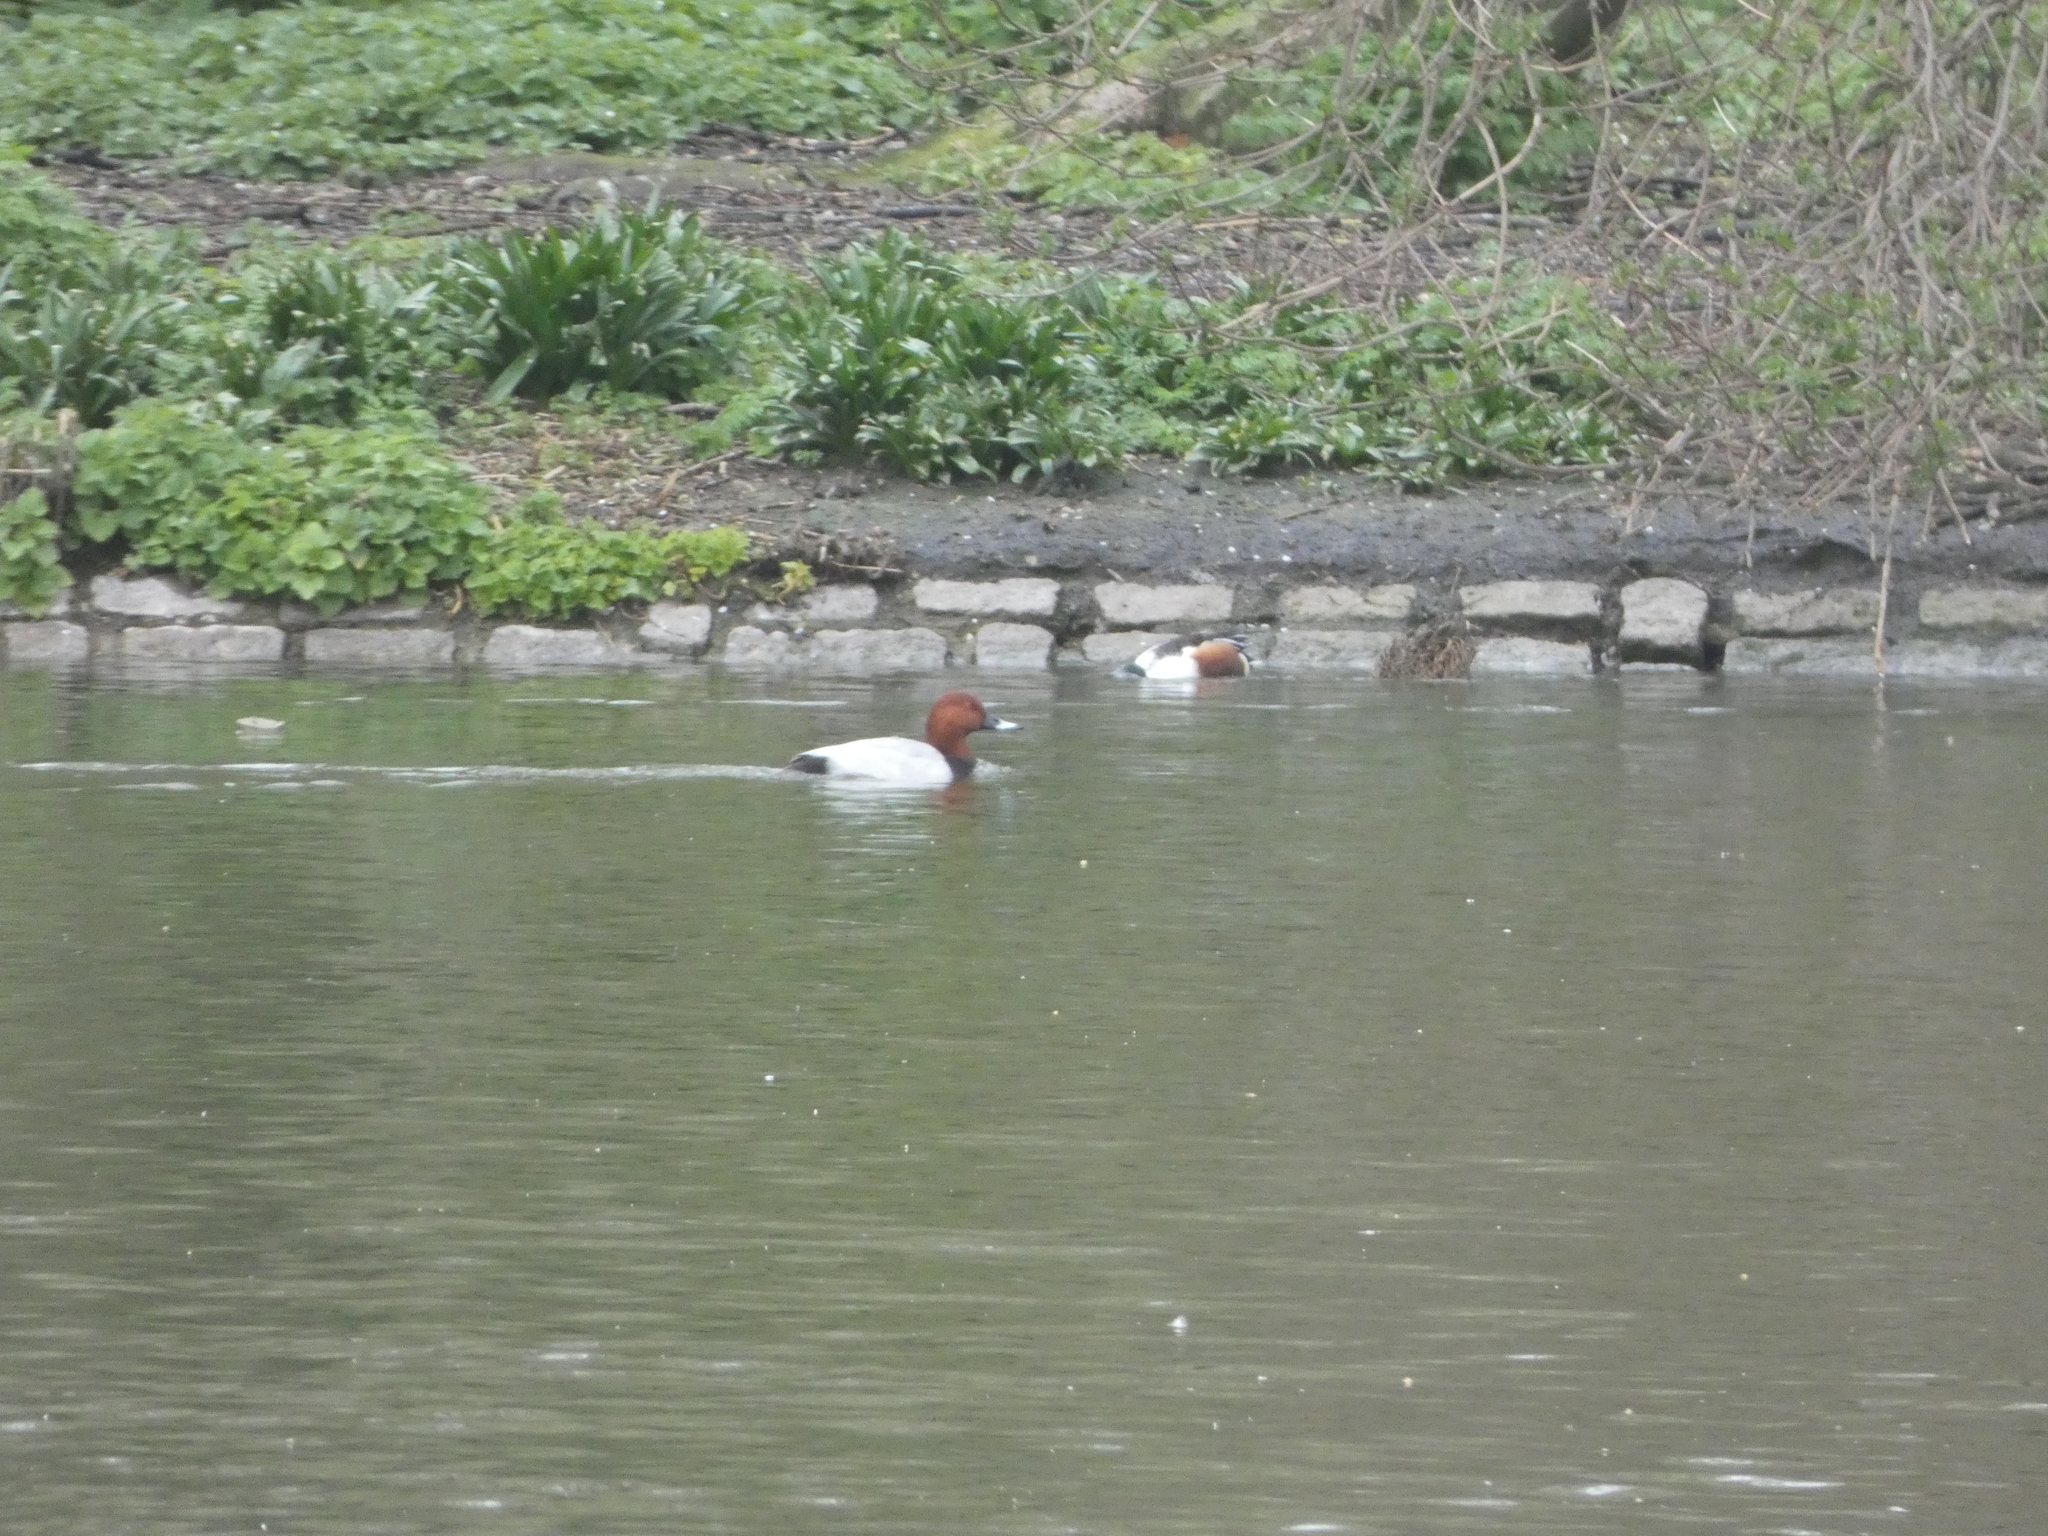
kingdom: Animalia
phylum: Chordata
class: Aves
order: Anseriformes
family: Anatidae
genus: Aythya
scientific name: Aythya ferina
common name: Common pochard
